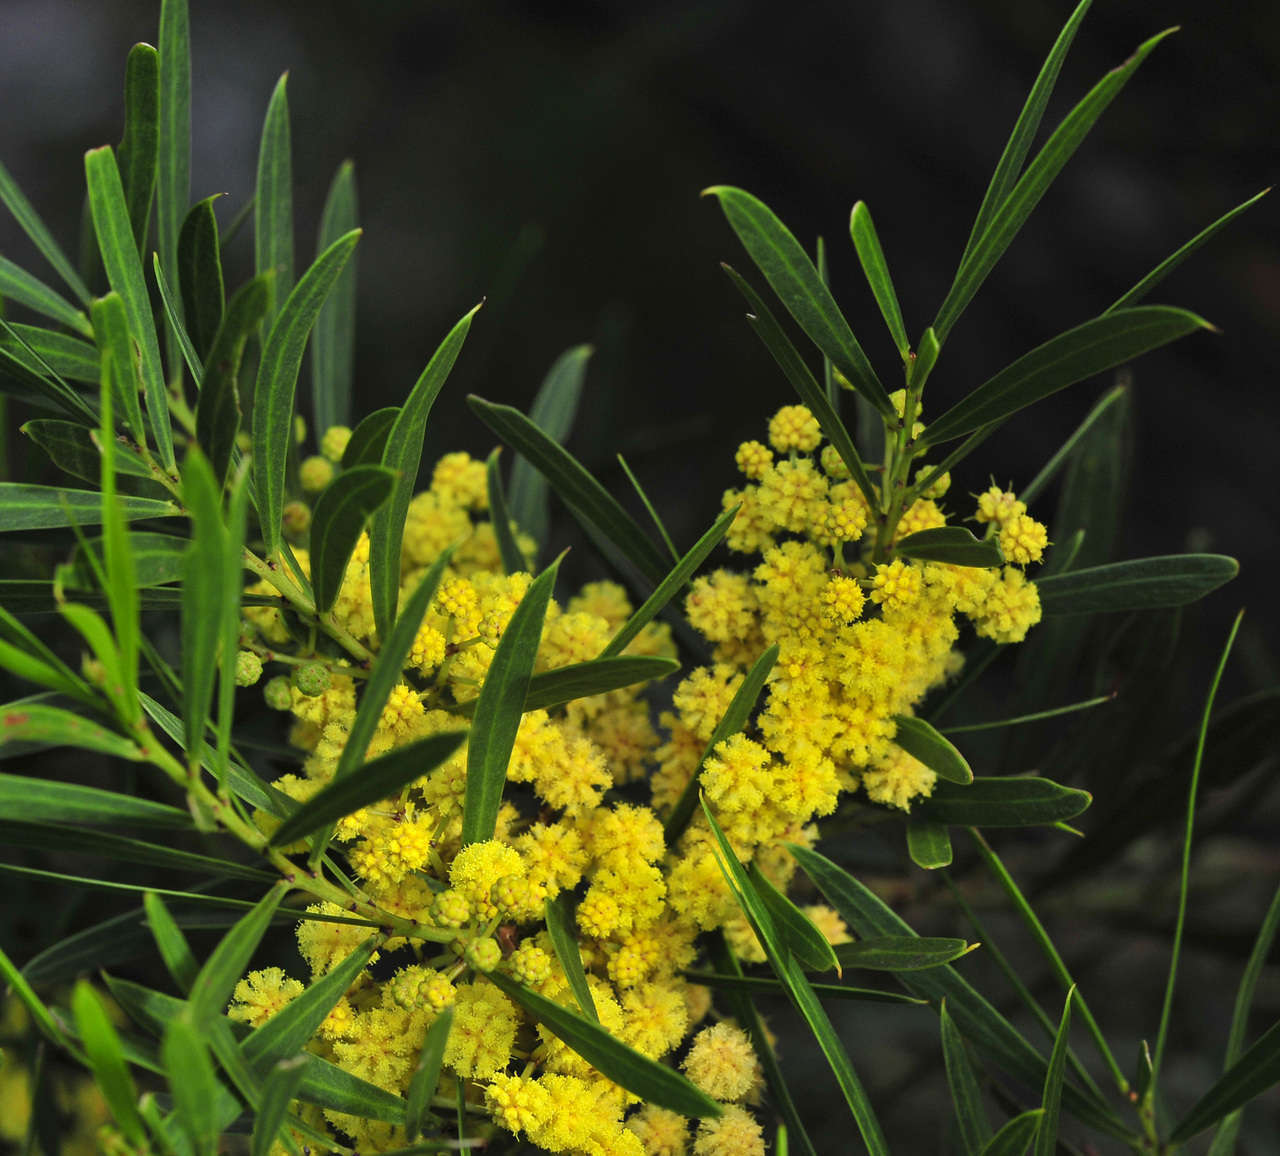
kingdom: Plantae
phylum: Tracheophyta
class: Magnoliopsida
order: Fabales
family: Fabaceae
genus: Acacia
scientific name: Acacia uncifolia
